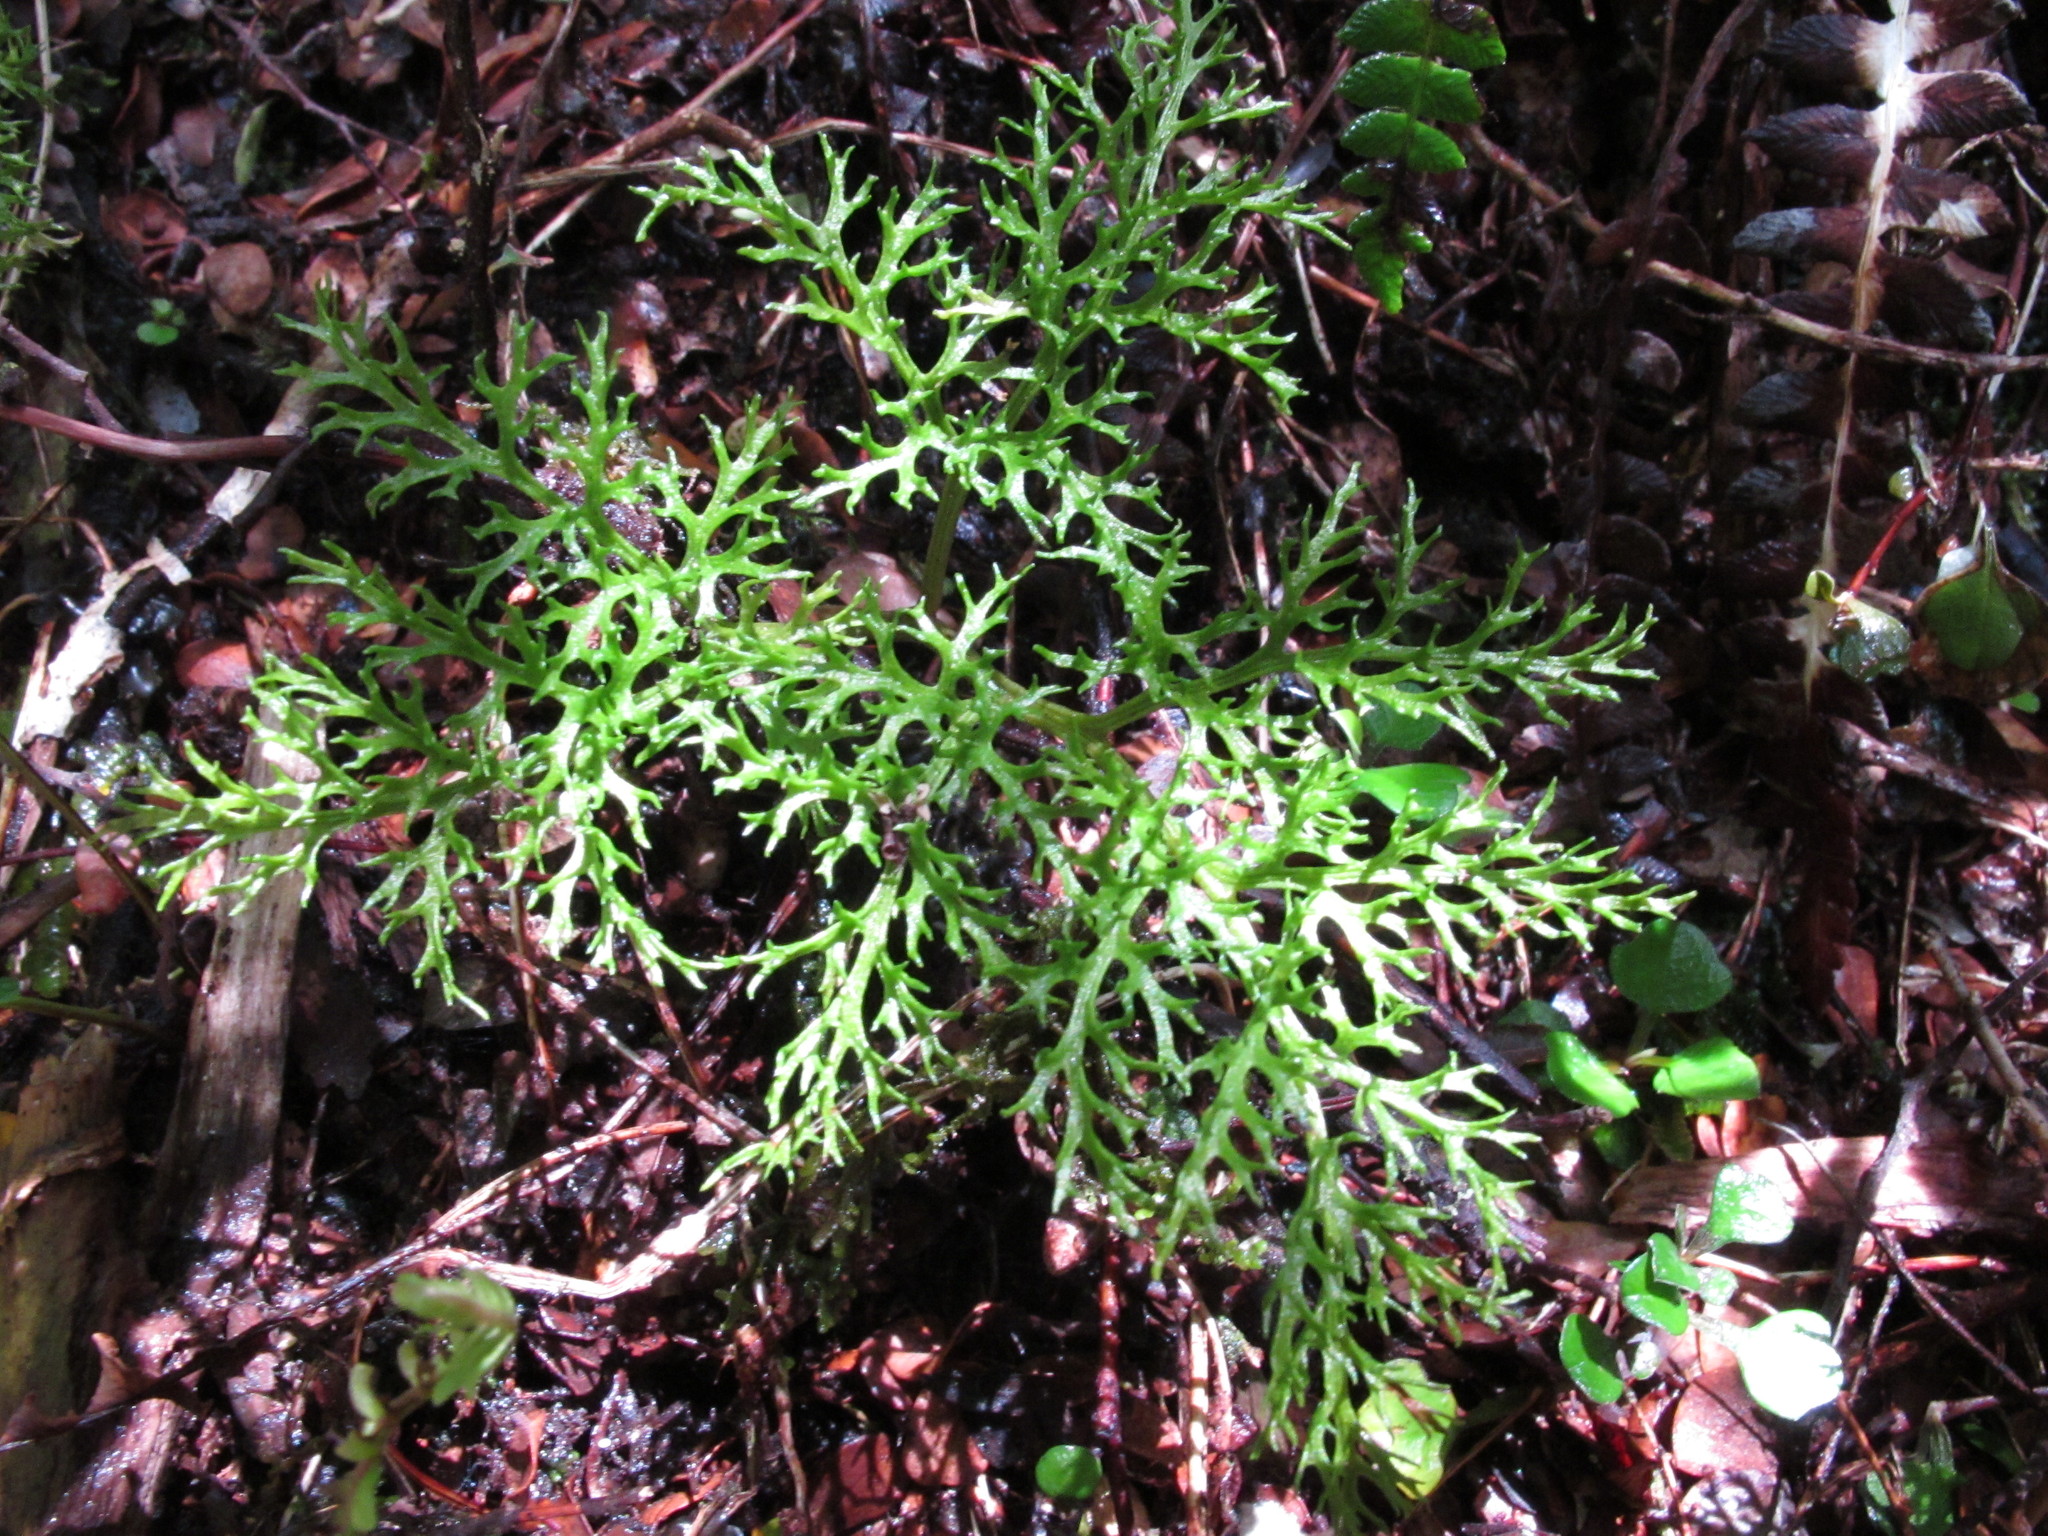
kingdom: Plantae
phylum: Tracheophyta
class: Polypodiopsida
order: Ophioglossales
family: Ophioglossaceae
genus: Sceptridium
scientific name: Sceptridium biforme
